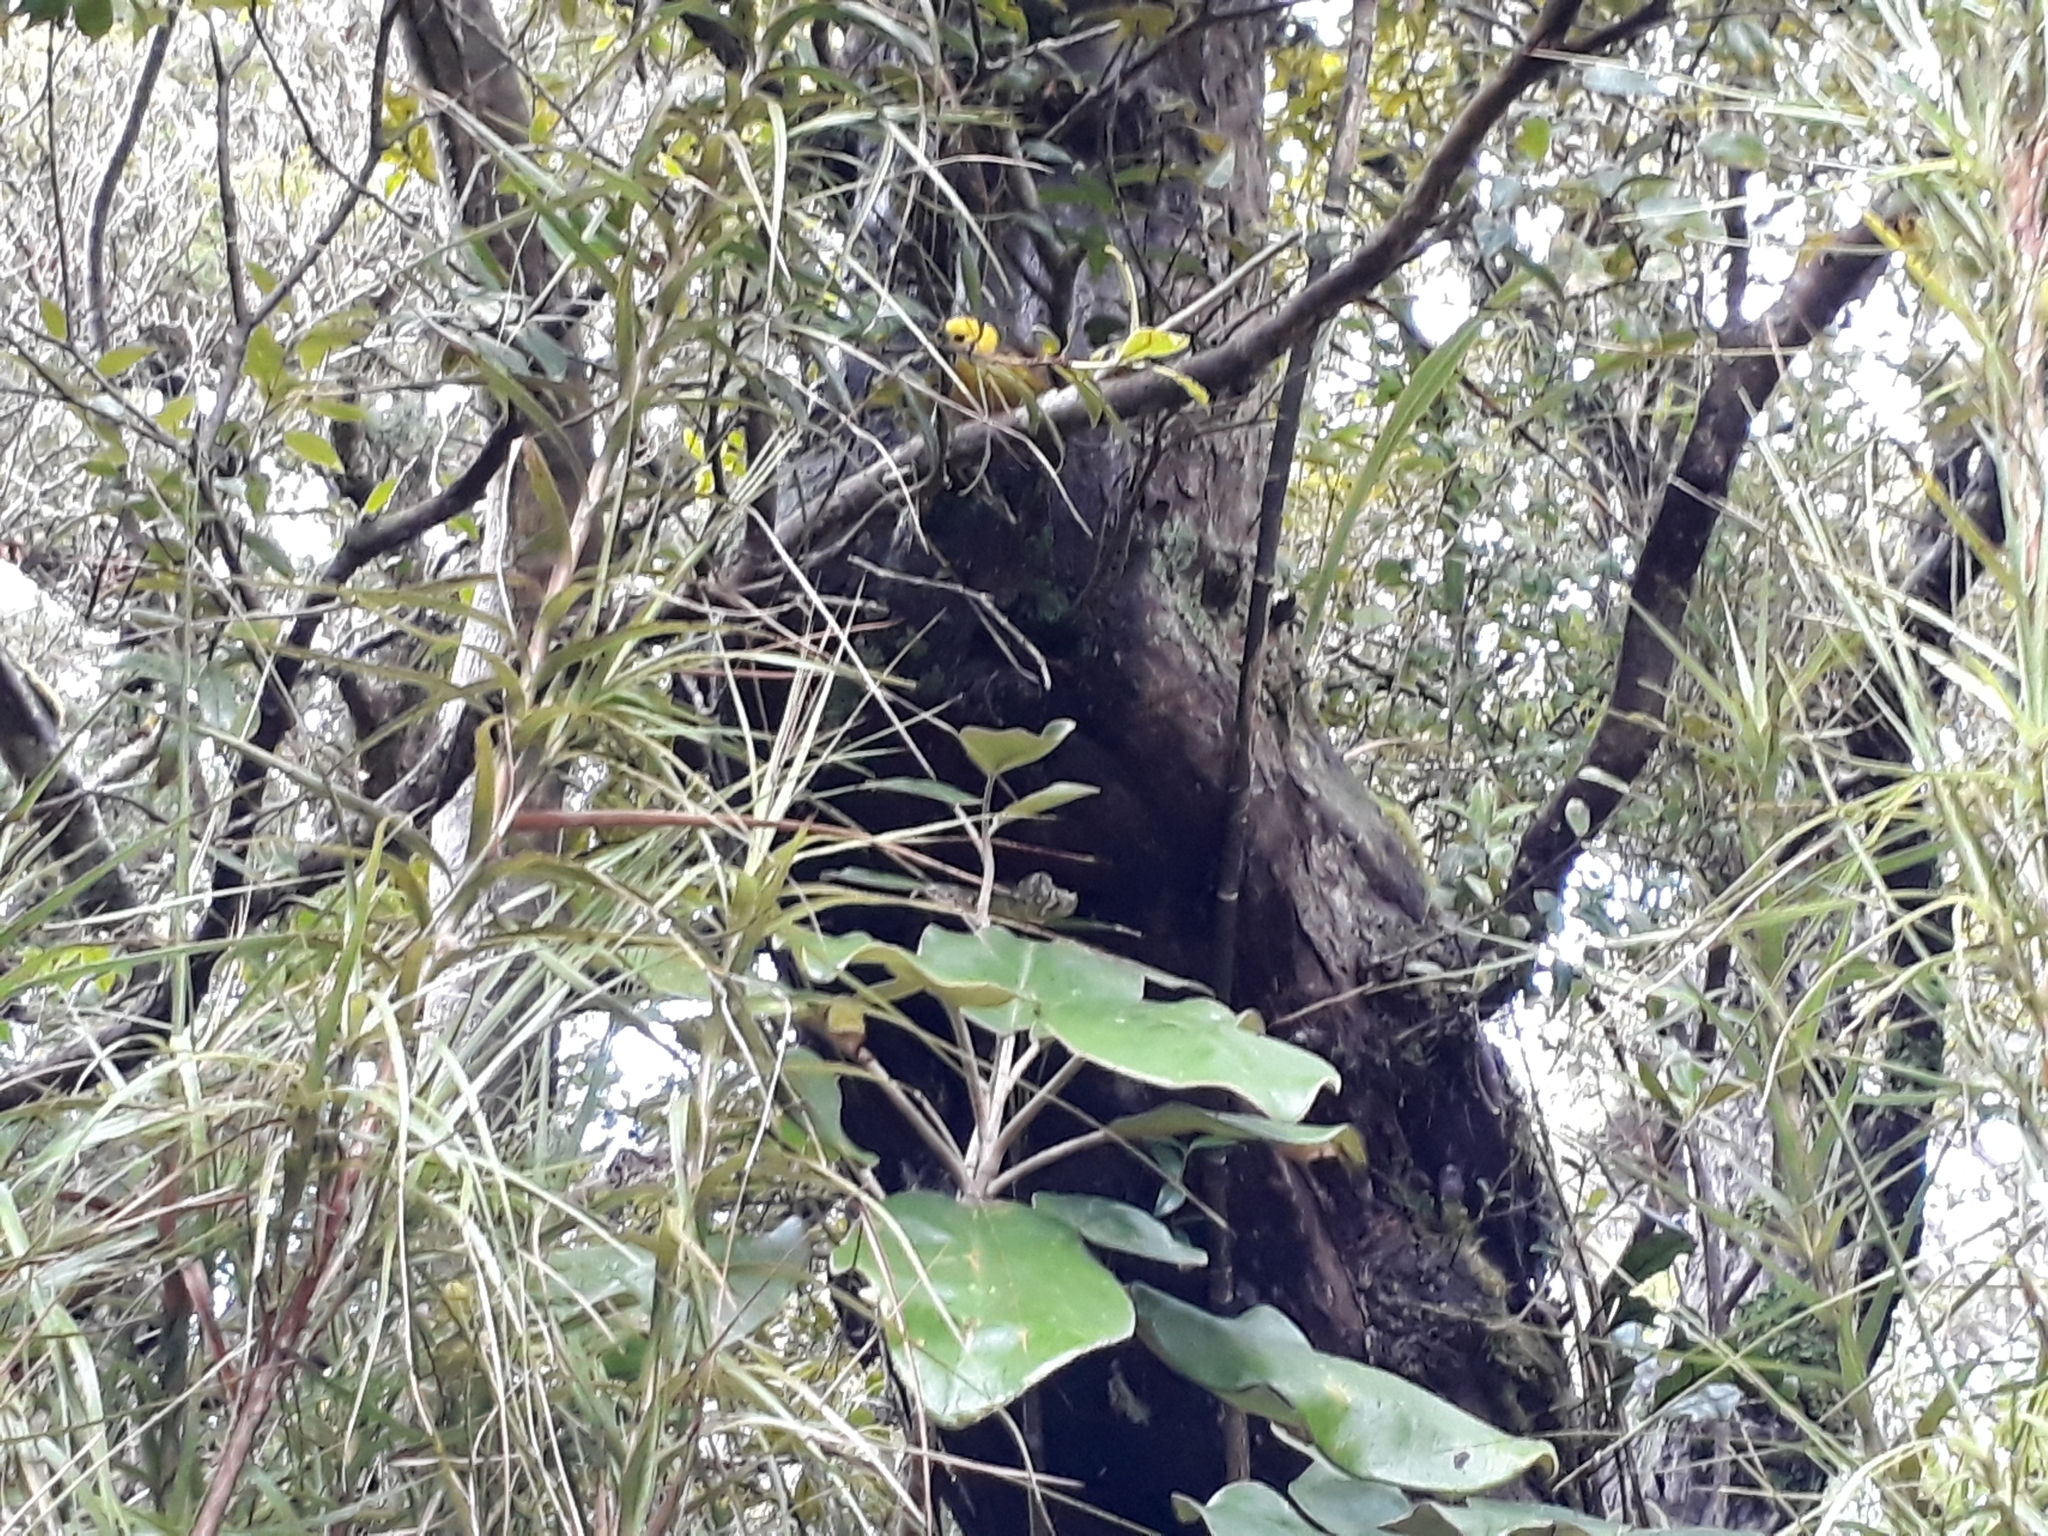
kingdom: Animalia
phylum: Chordata
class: Aves
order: Passeriformes
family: Acanthizidae
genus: Mohoua
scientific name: Mohoua ochrocephala
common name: Yellowhead
